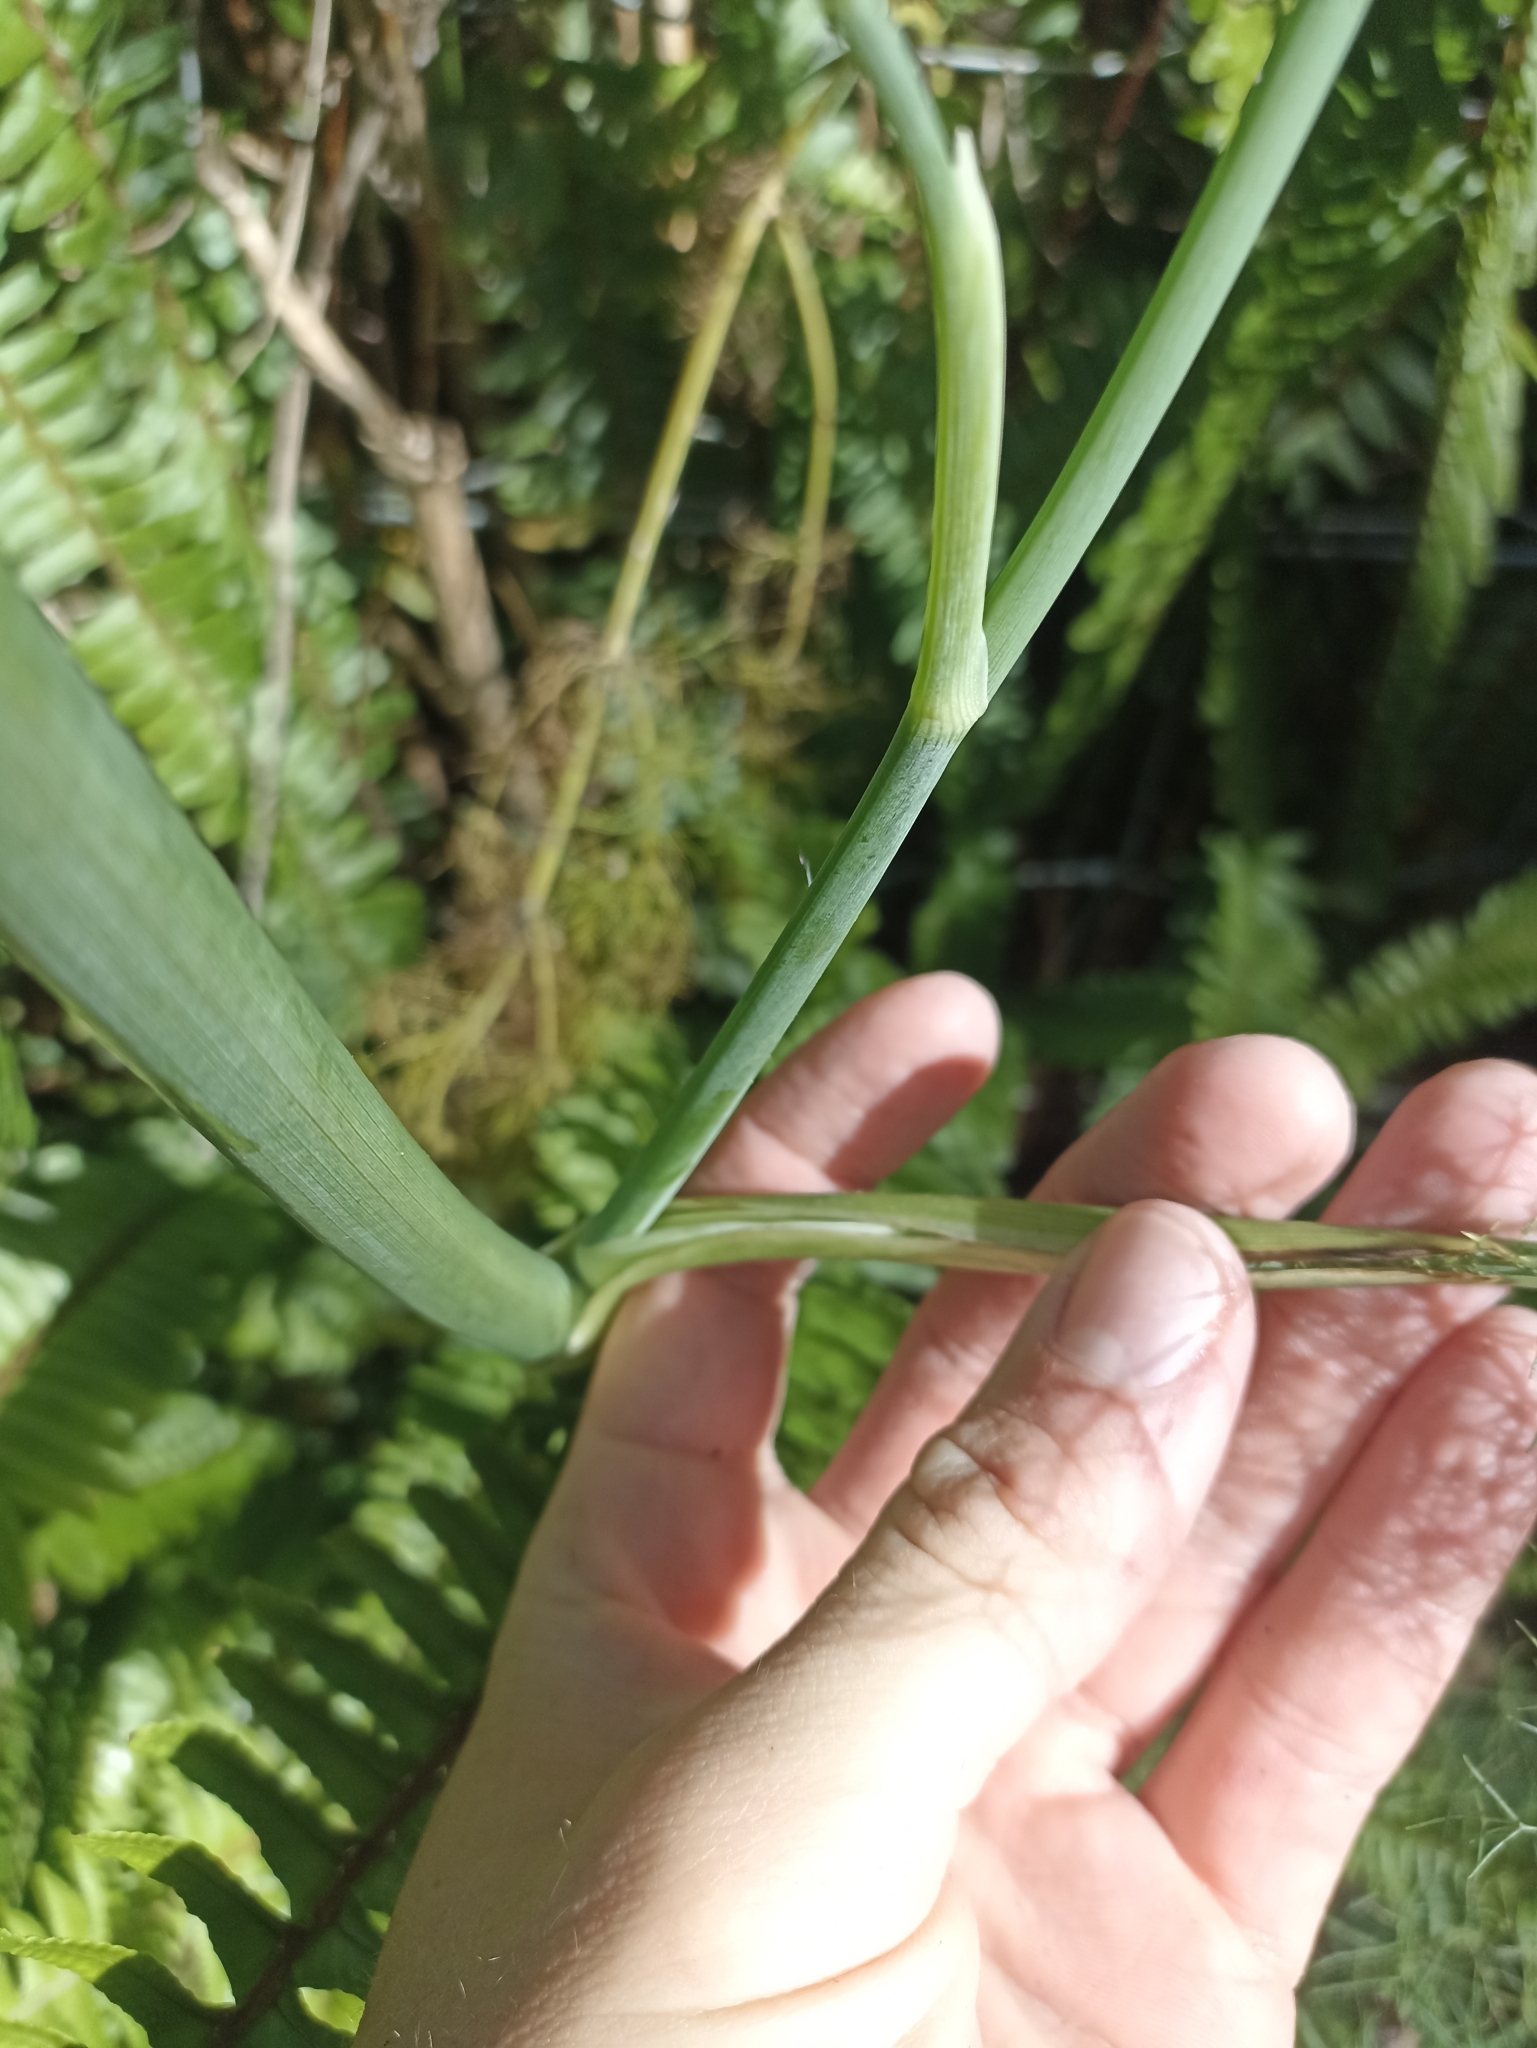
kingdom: Plantae
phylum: Tracheophyta
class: Magnoliopsida
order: Apiales
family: Apiaceae
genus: Foeniculum
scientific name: Foeniculum vulgare
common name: Fennel
